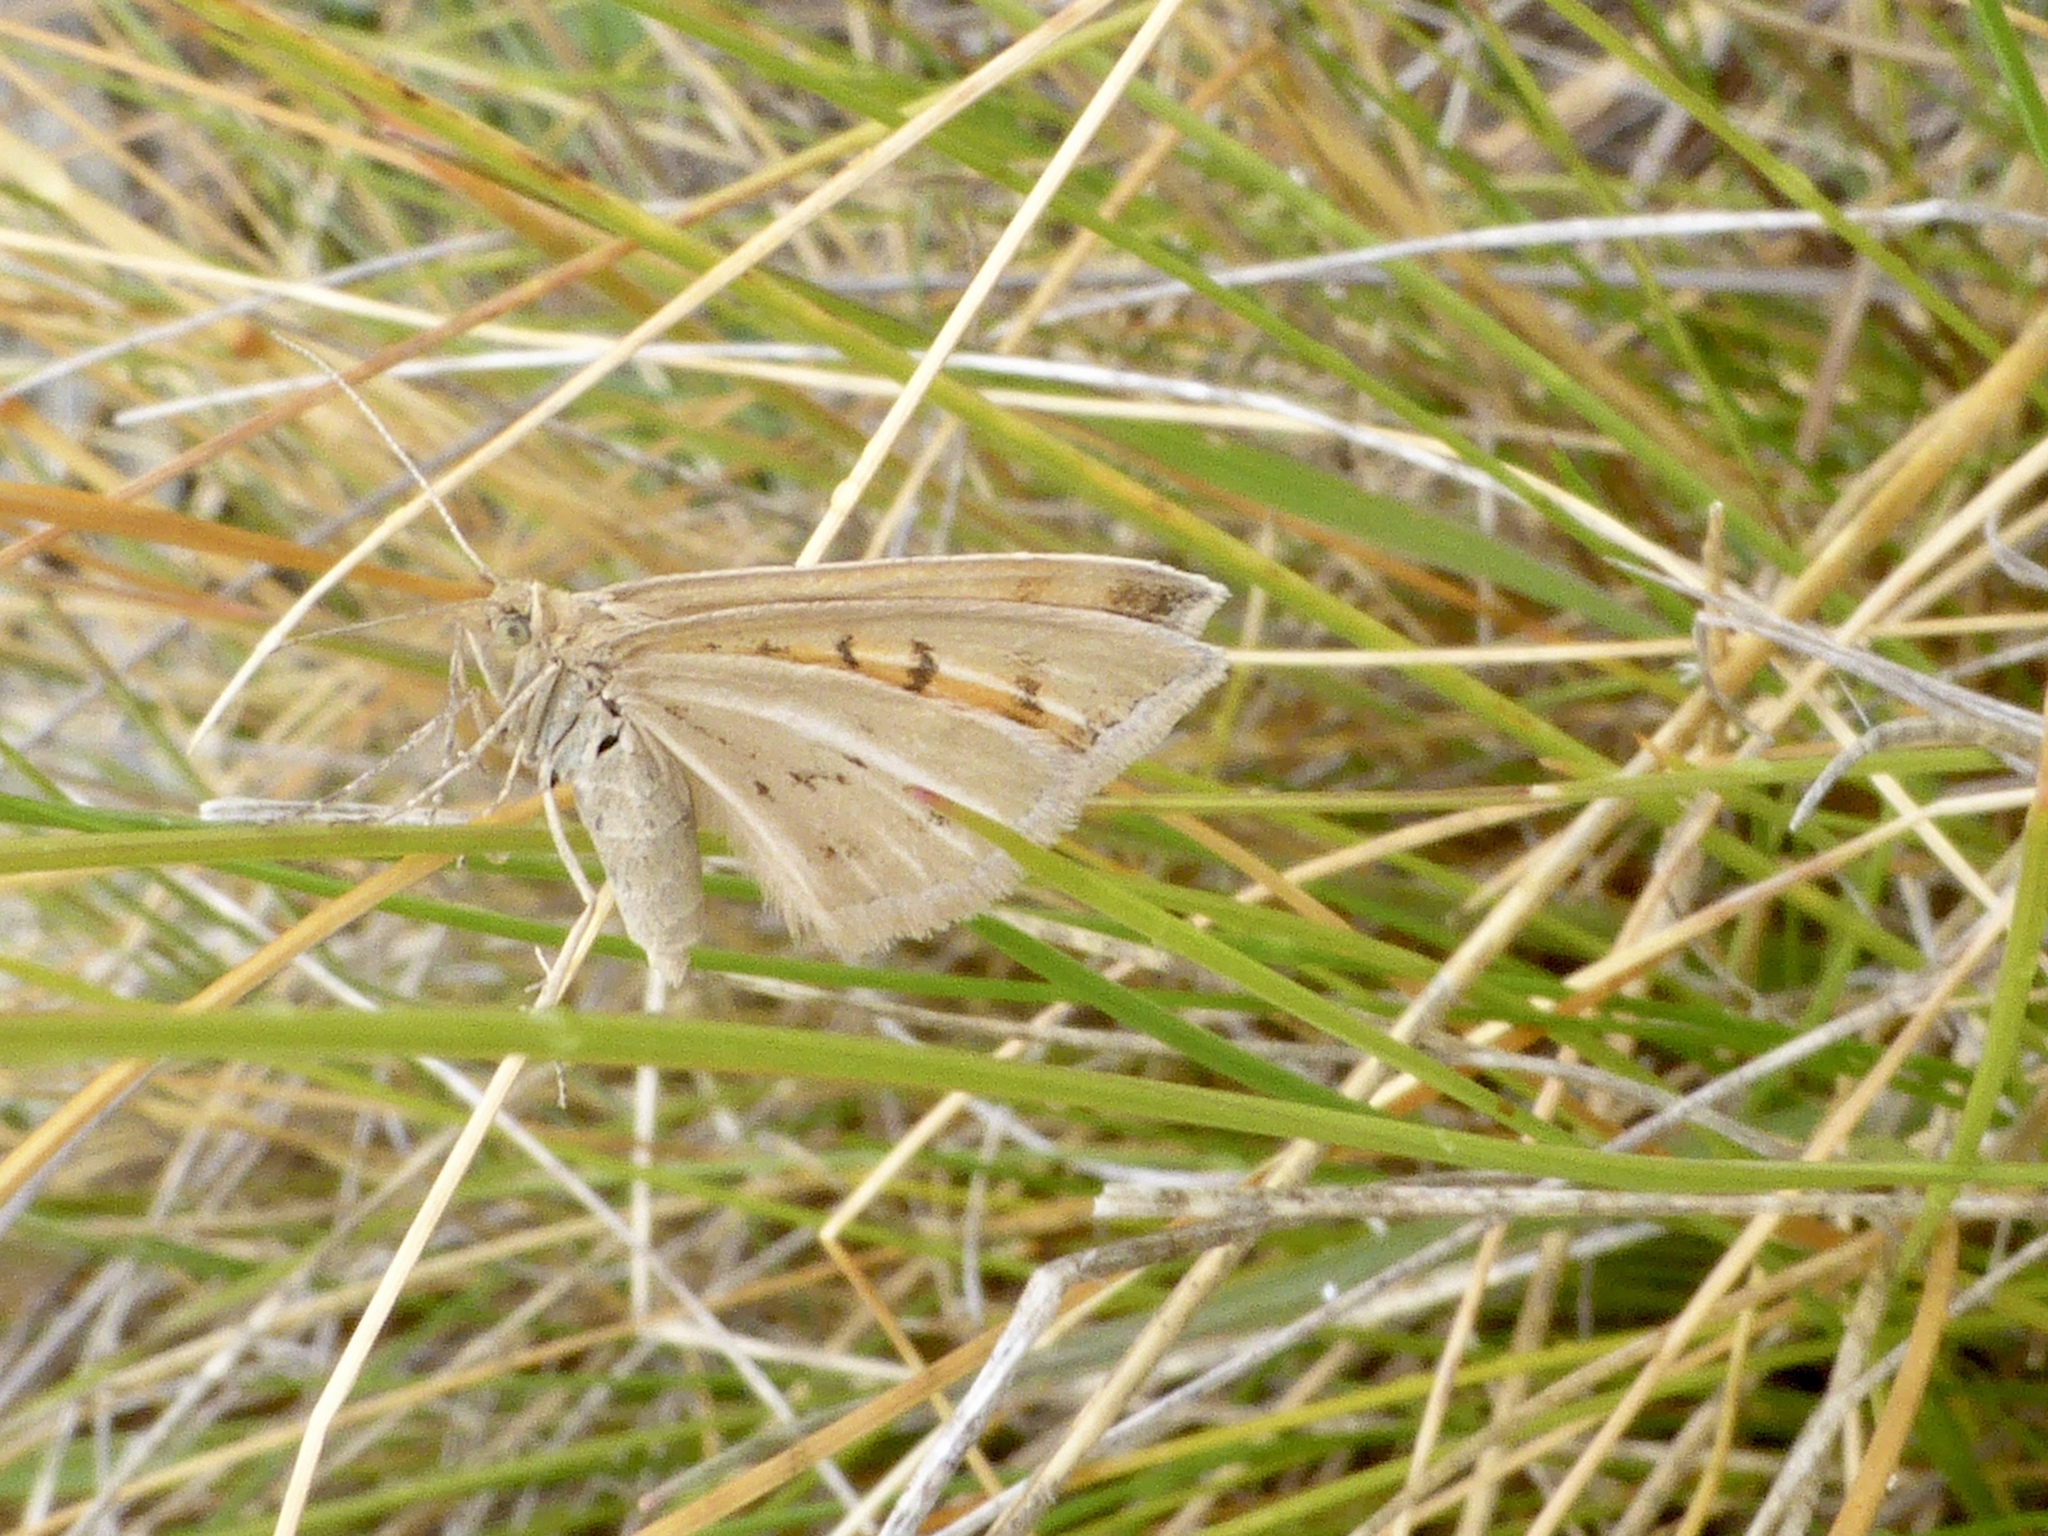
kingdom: Animalia
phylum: Arthropoda
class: Insecta
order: Lepidoptera
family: Geometridae
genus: Asaphodes
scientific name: Asaphodes abrogata
